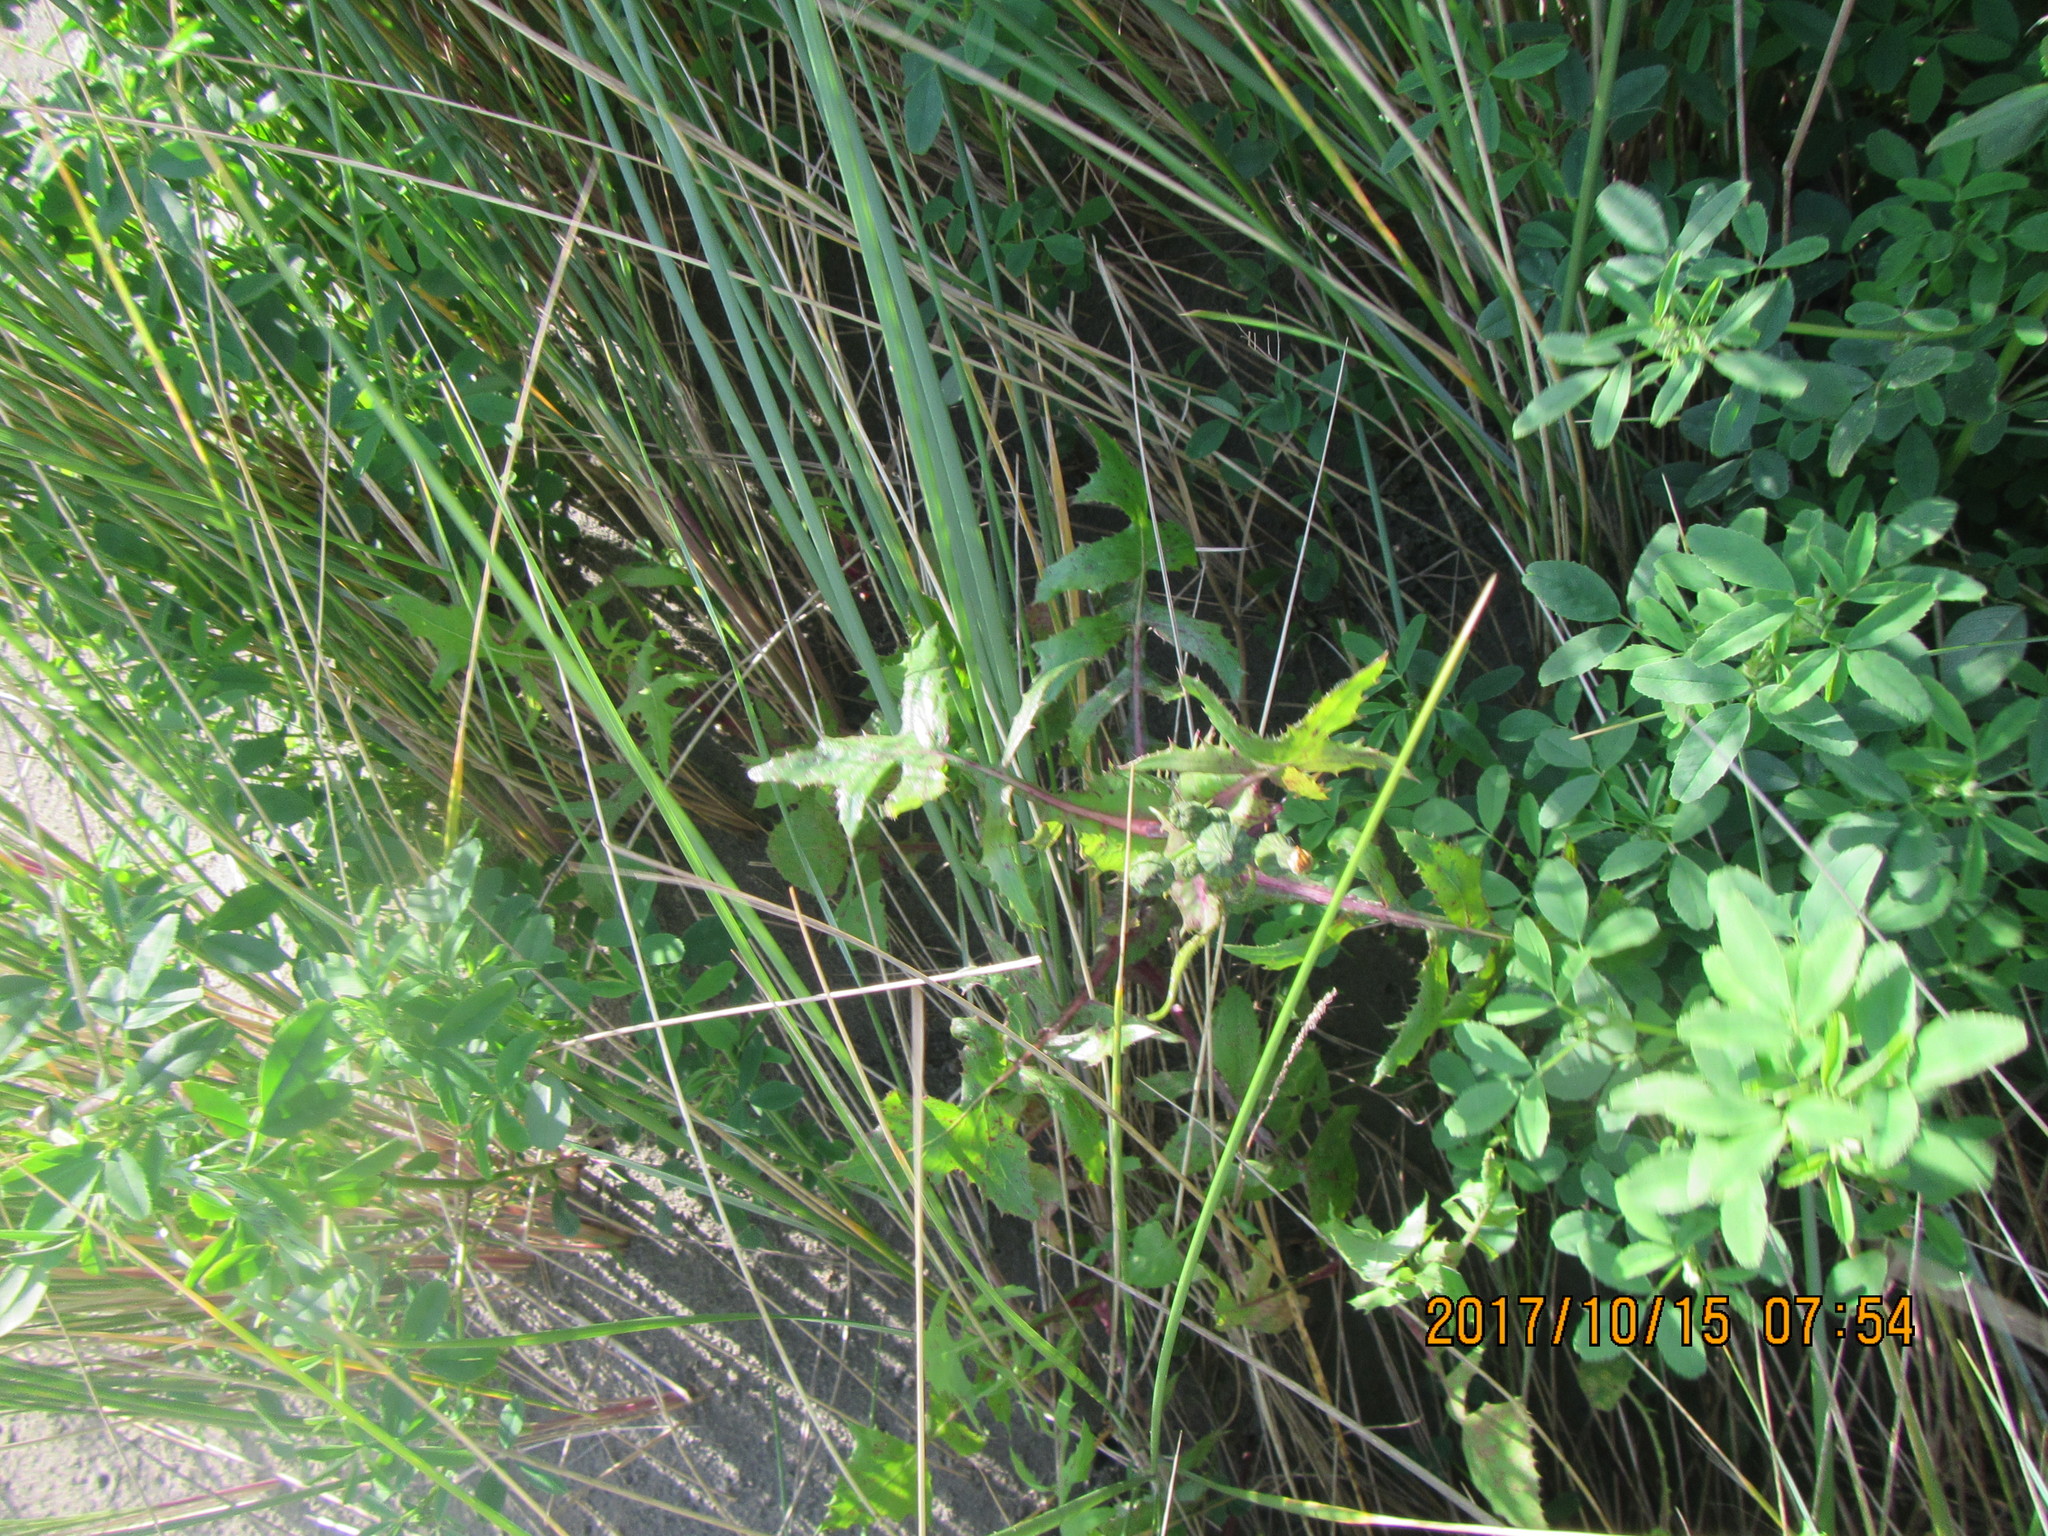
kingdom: Plantae
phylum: Tracheophyta
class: Magnoliopsida
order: Asterales
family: Asteraceae
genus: Sonchus
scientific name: Sonchus oleraceus
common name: Common sowthistle
